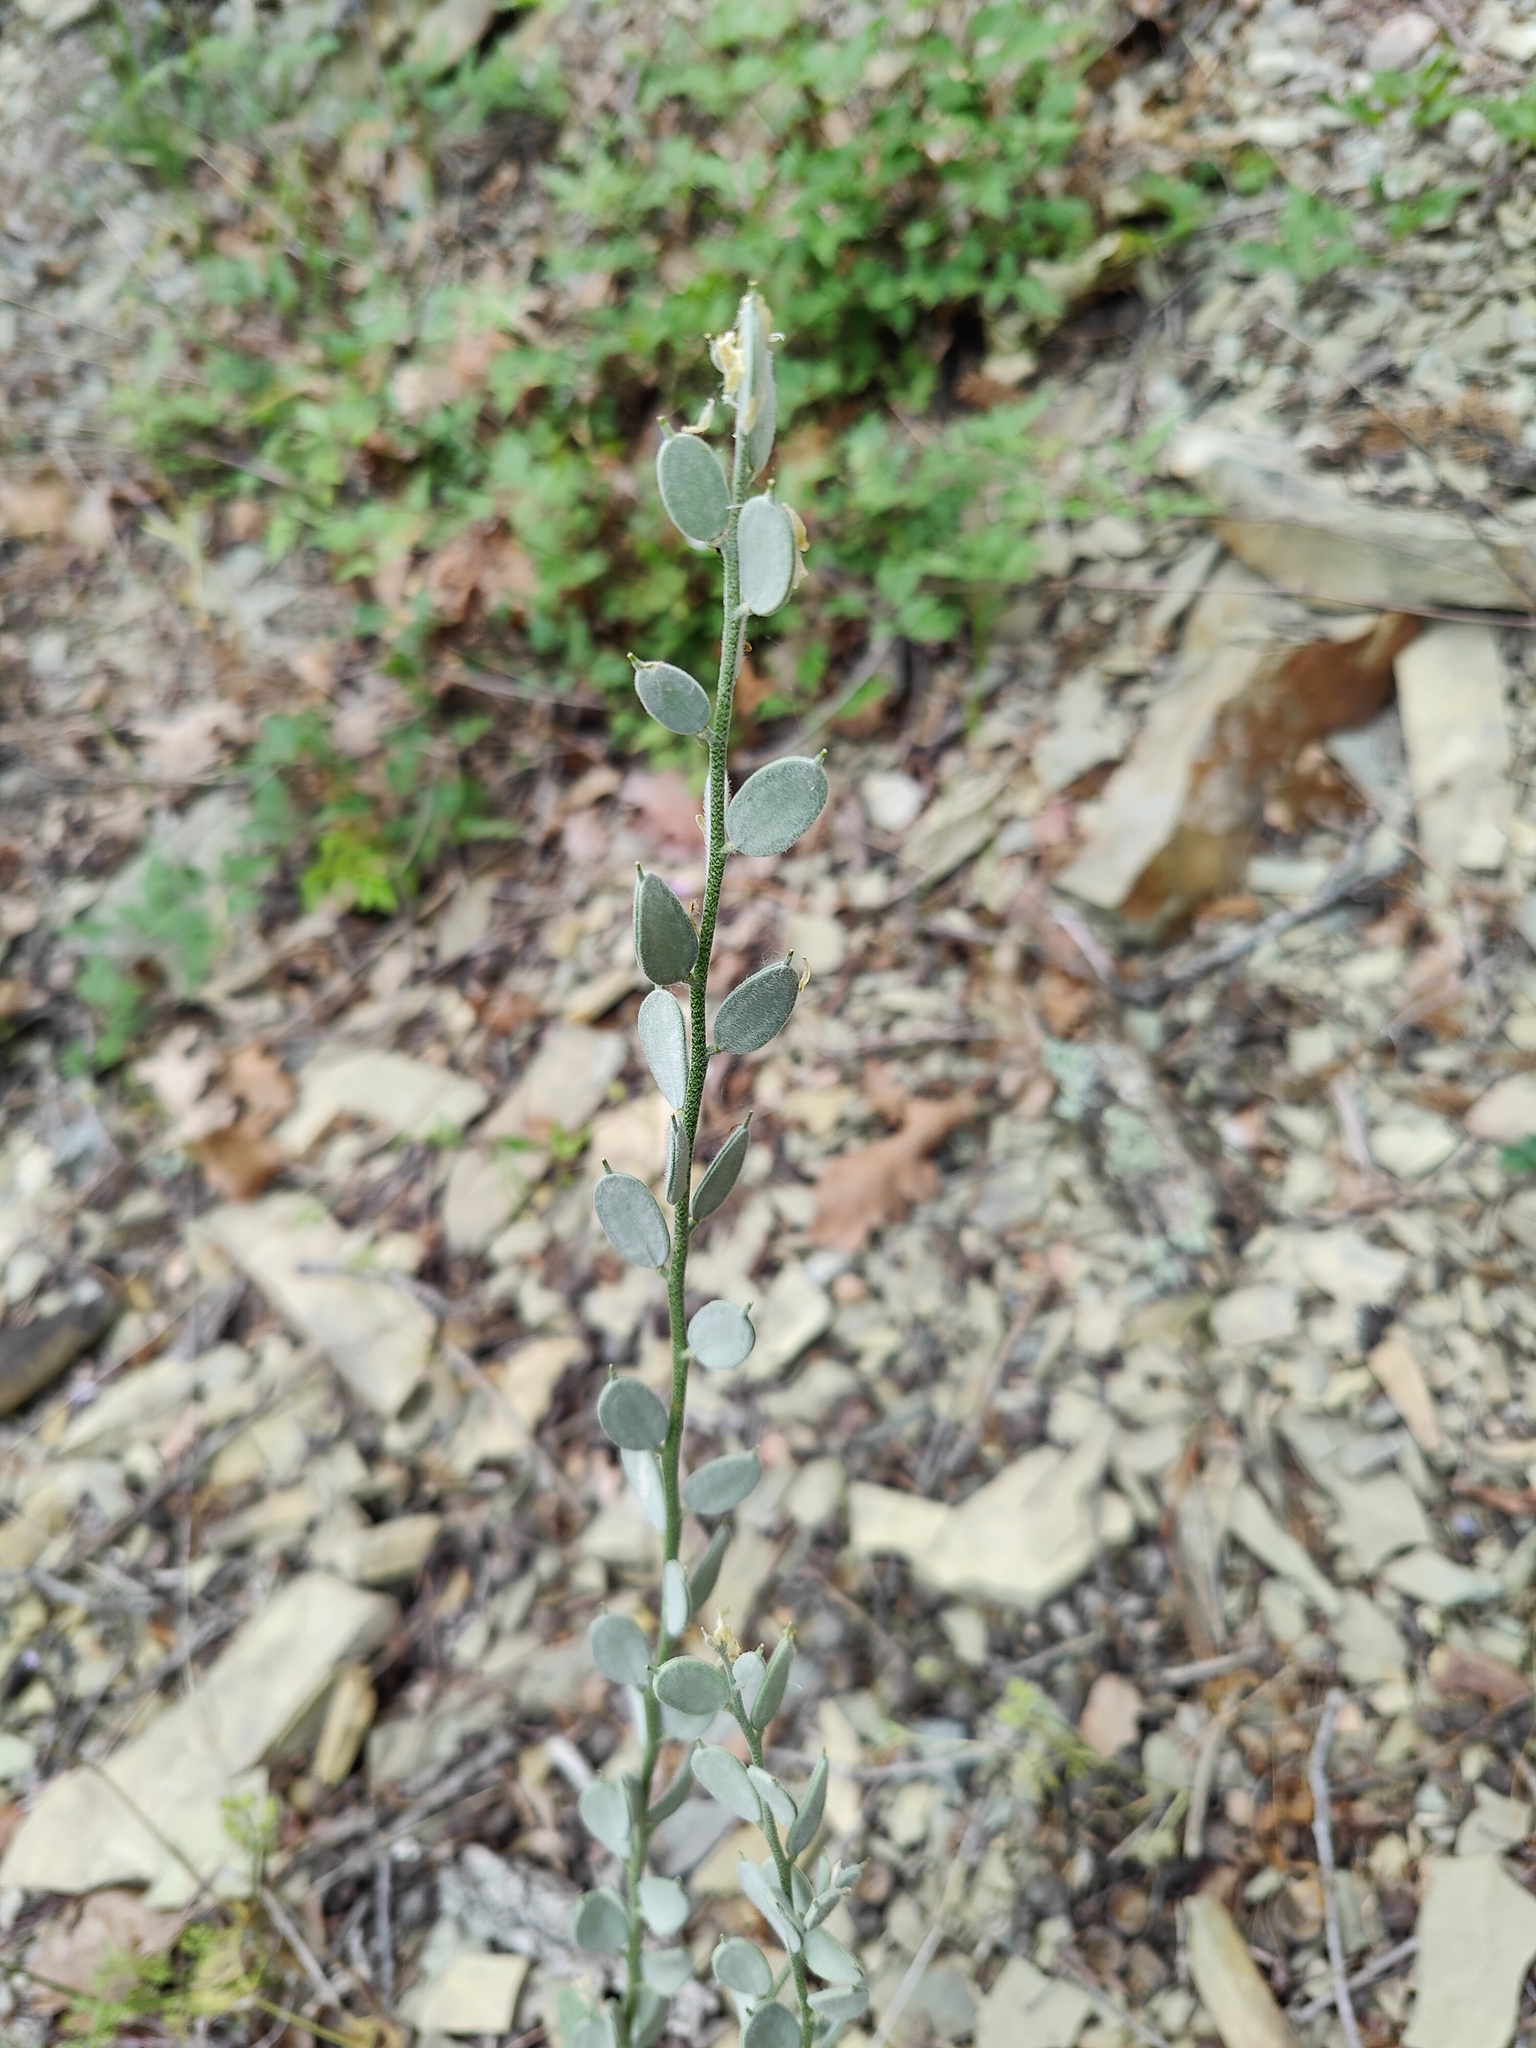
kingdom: Plantae
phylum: Tracheophyta
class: Magnoliopsida
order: Brassicales
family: Brassicaceae
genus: Fibigia
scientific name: Fibigia clypeata
